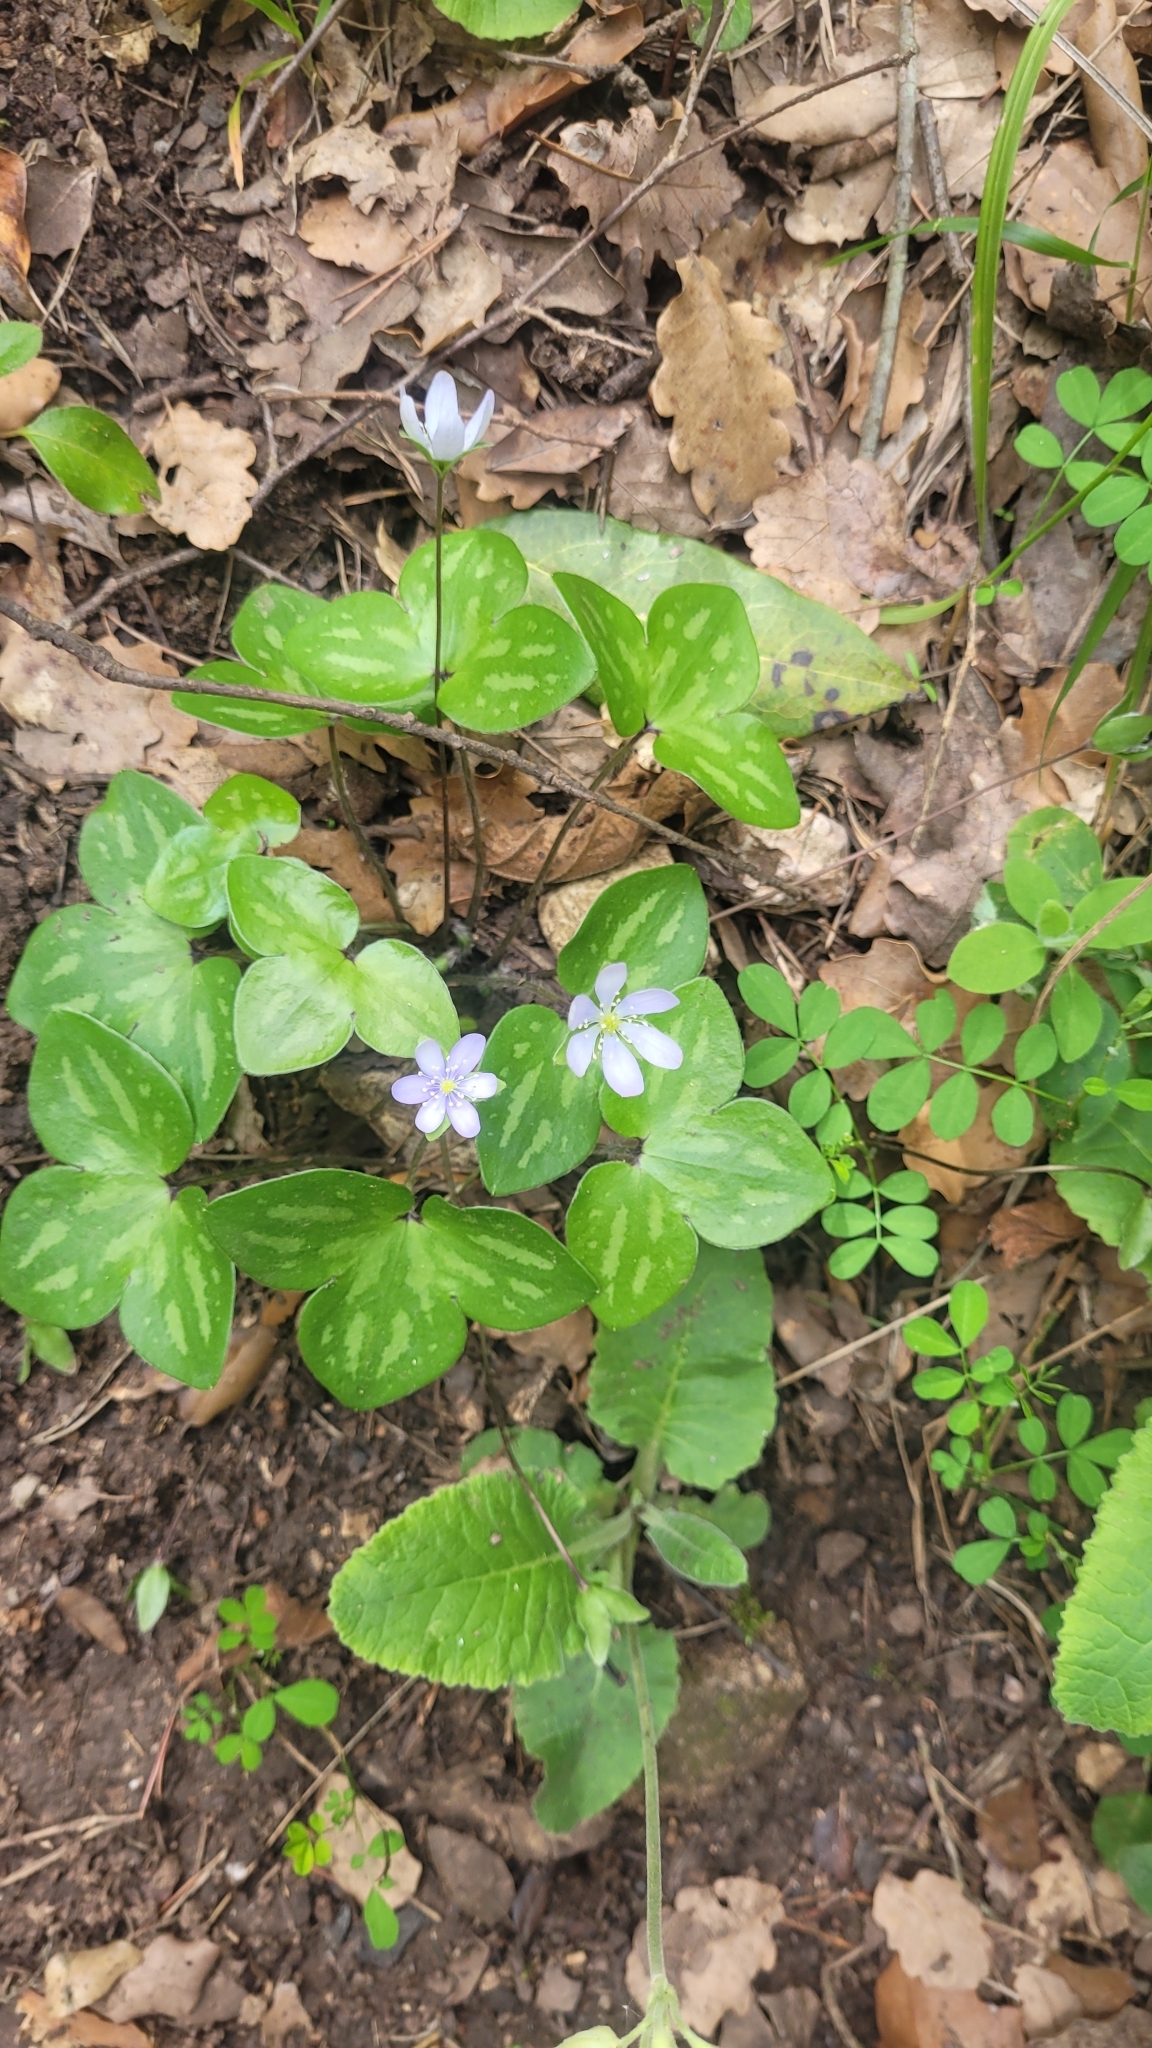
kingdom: Plantae
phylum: Tracheophyta
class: Magnoliopsida
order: Ranunculales
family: Ranunculaceae
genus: Hepatica
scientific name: Hepatica nobilis
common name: Liverleaf
